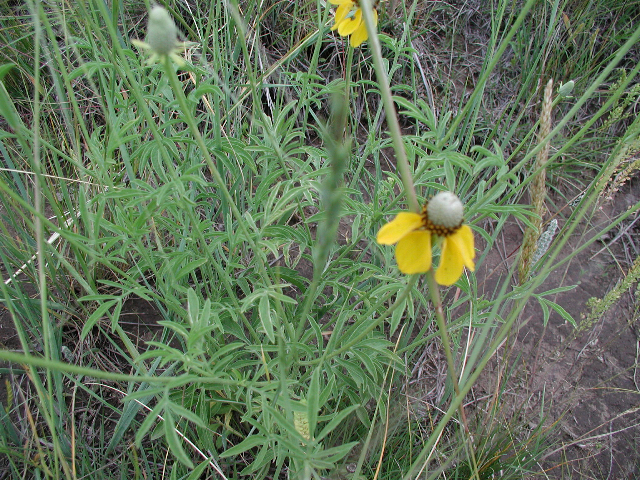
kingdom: Plantae
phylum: Tracheophyta
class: Magnoliopsida
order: Asterales
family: Asteraceae
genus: Ratibida
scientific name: Ratibida columnifera
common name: Prairie coneflower
